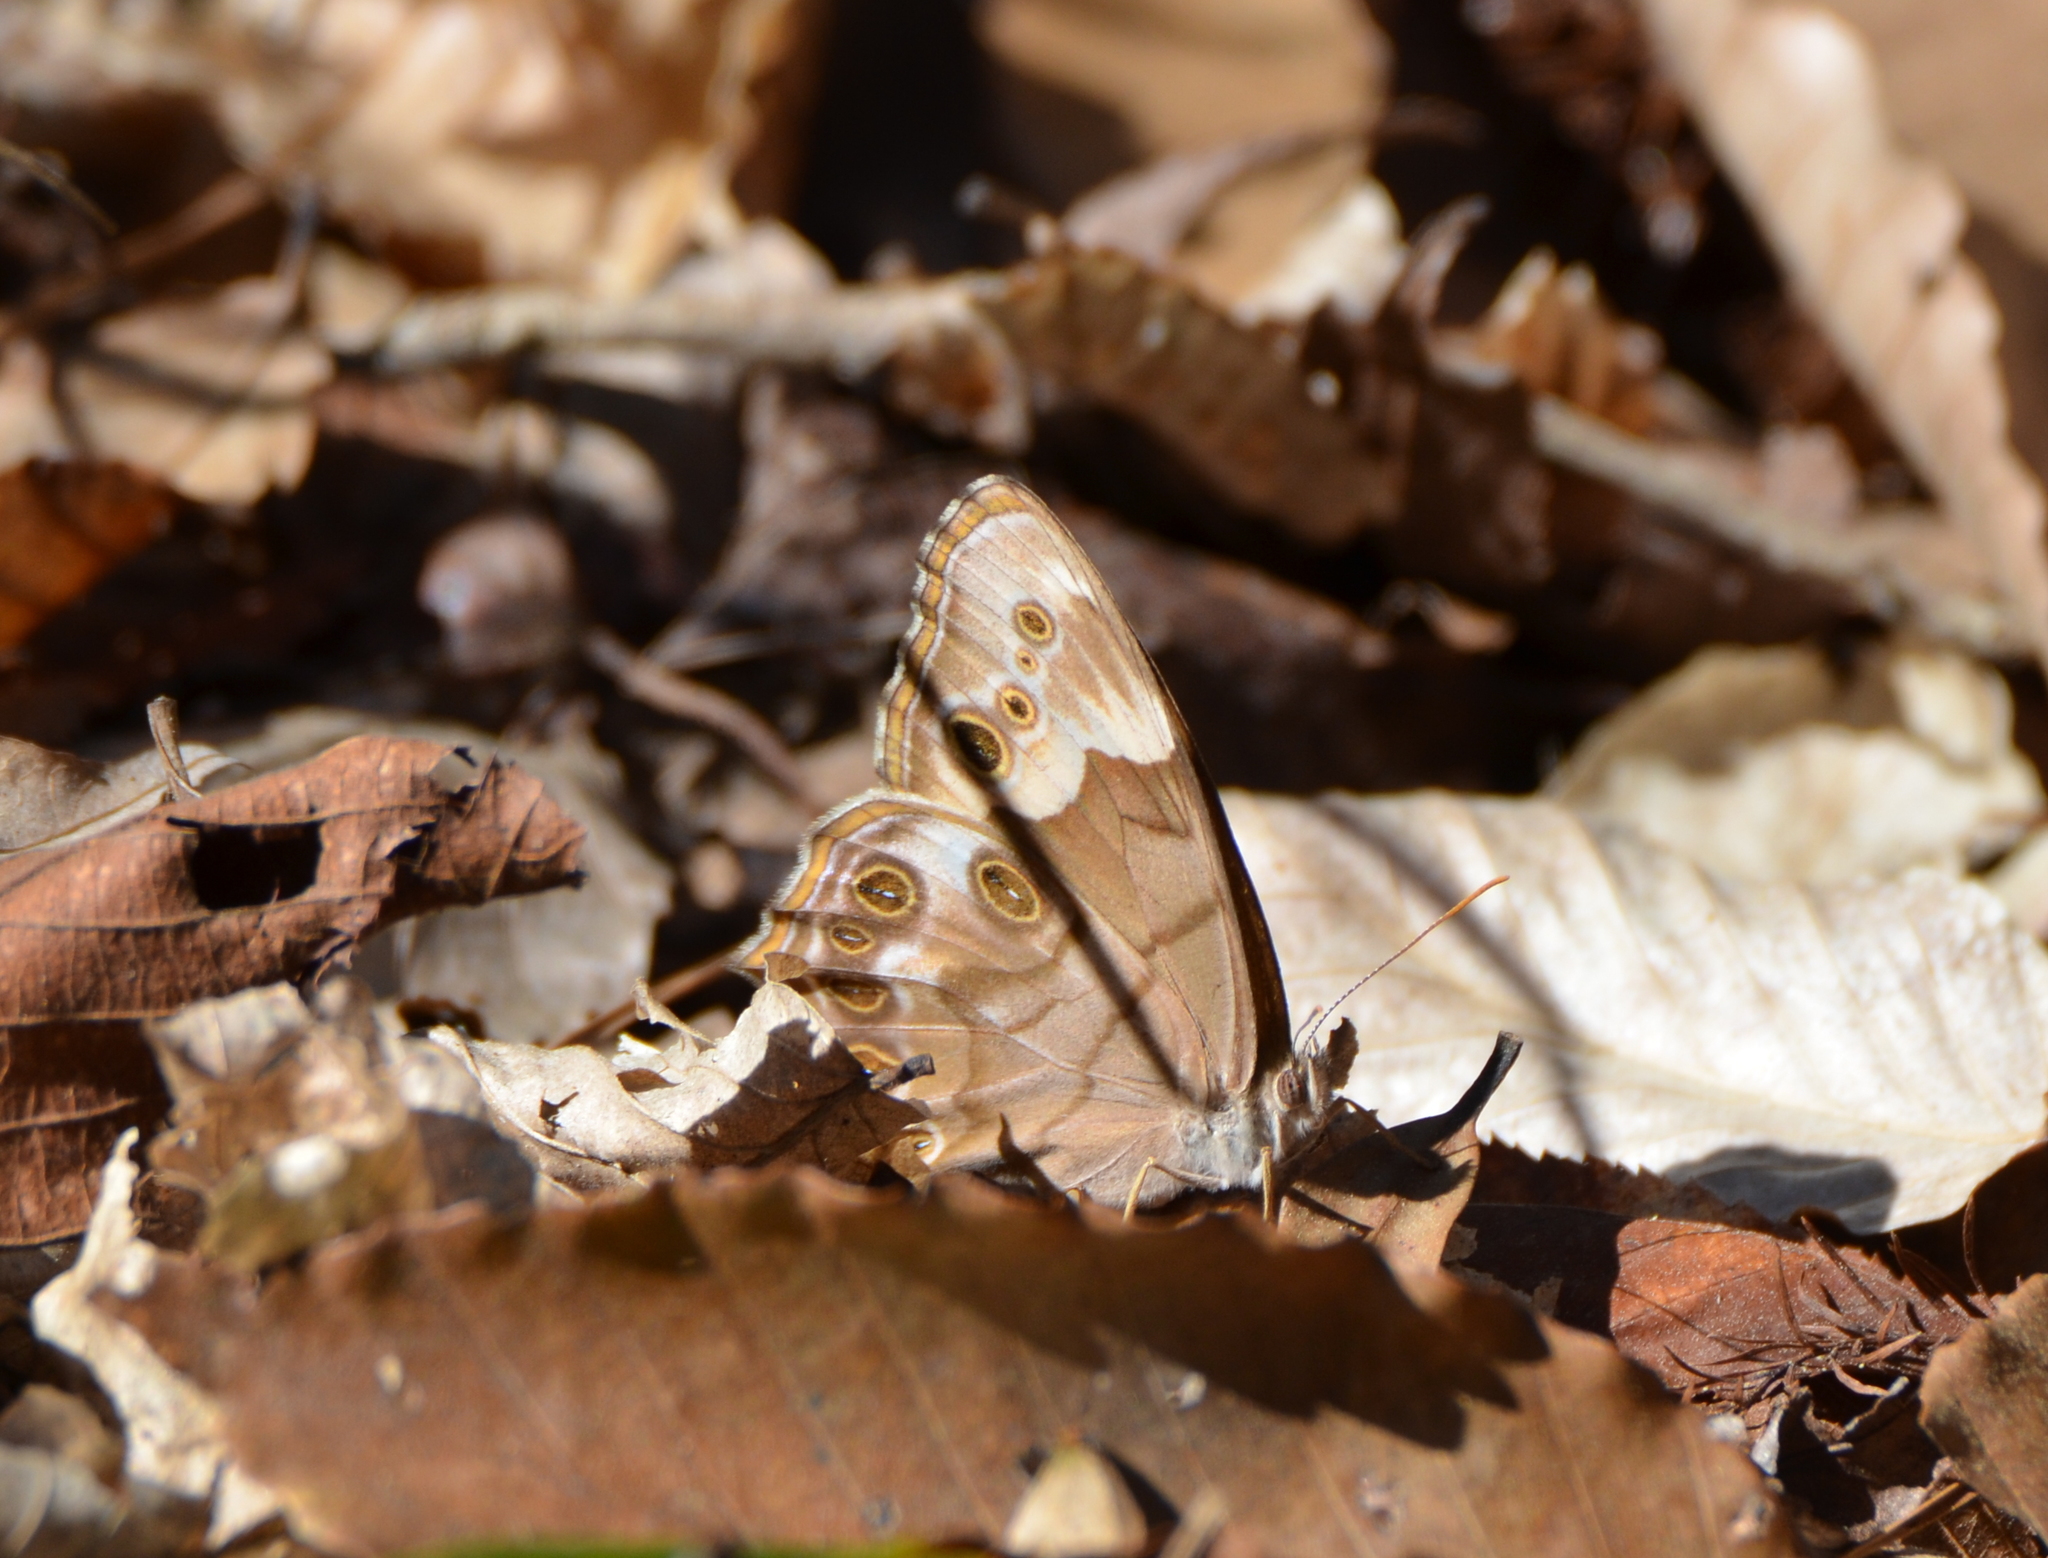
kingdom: Animalia
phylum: Arthropoda
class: Insecta
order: Lepidoptera
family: Nymphalidae
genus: Enodia
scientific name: Enodia portlandia
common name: Southern pearly-eye
